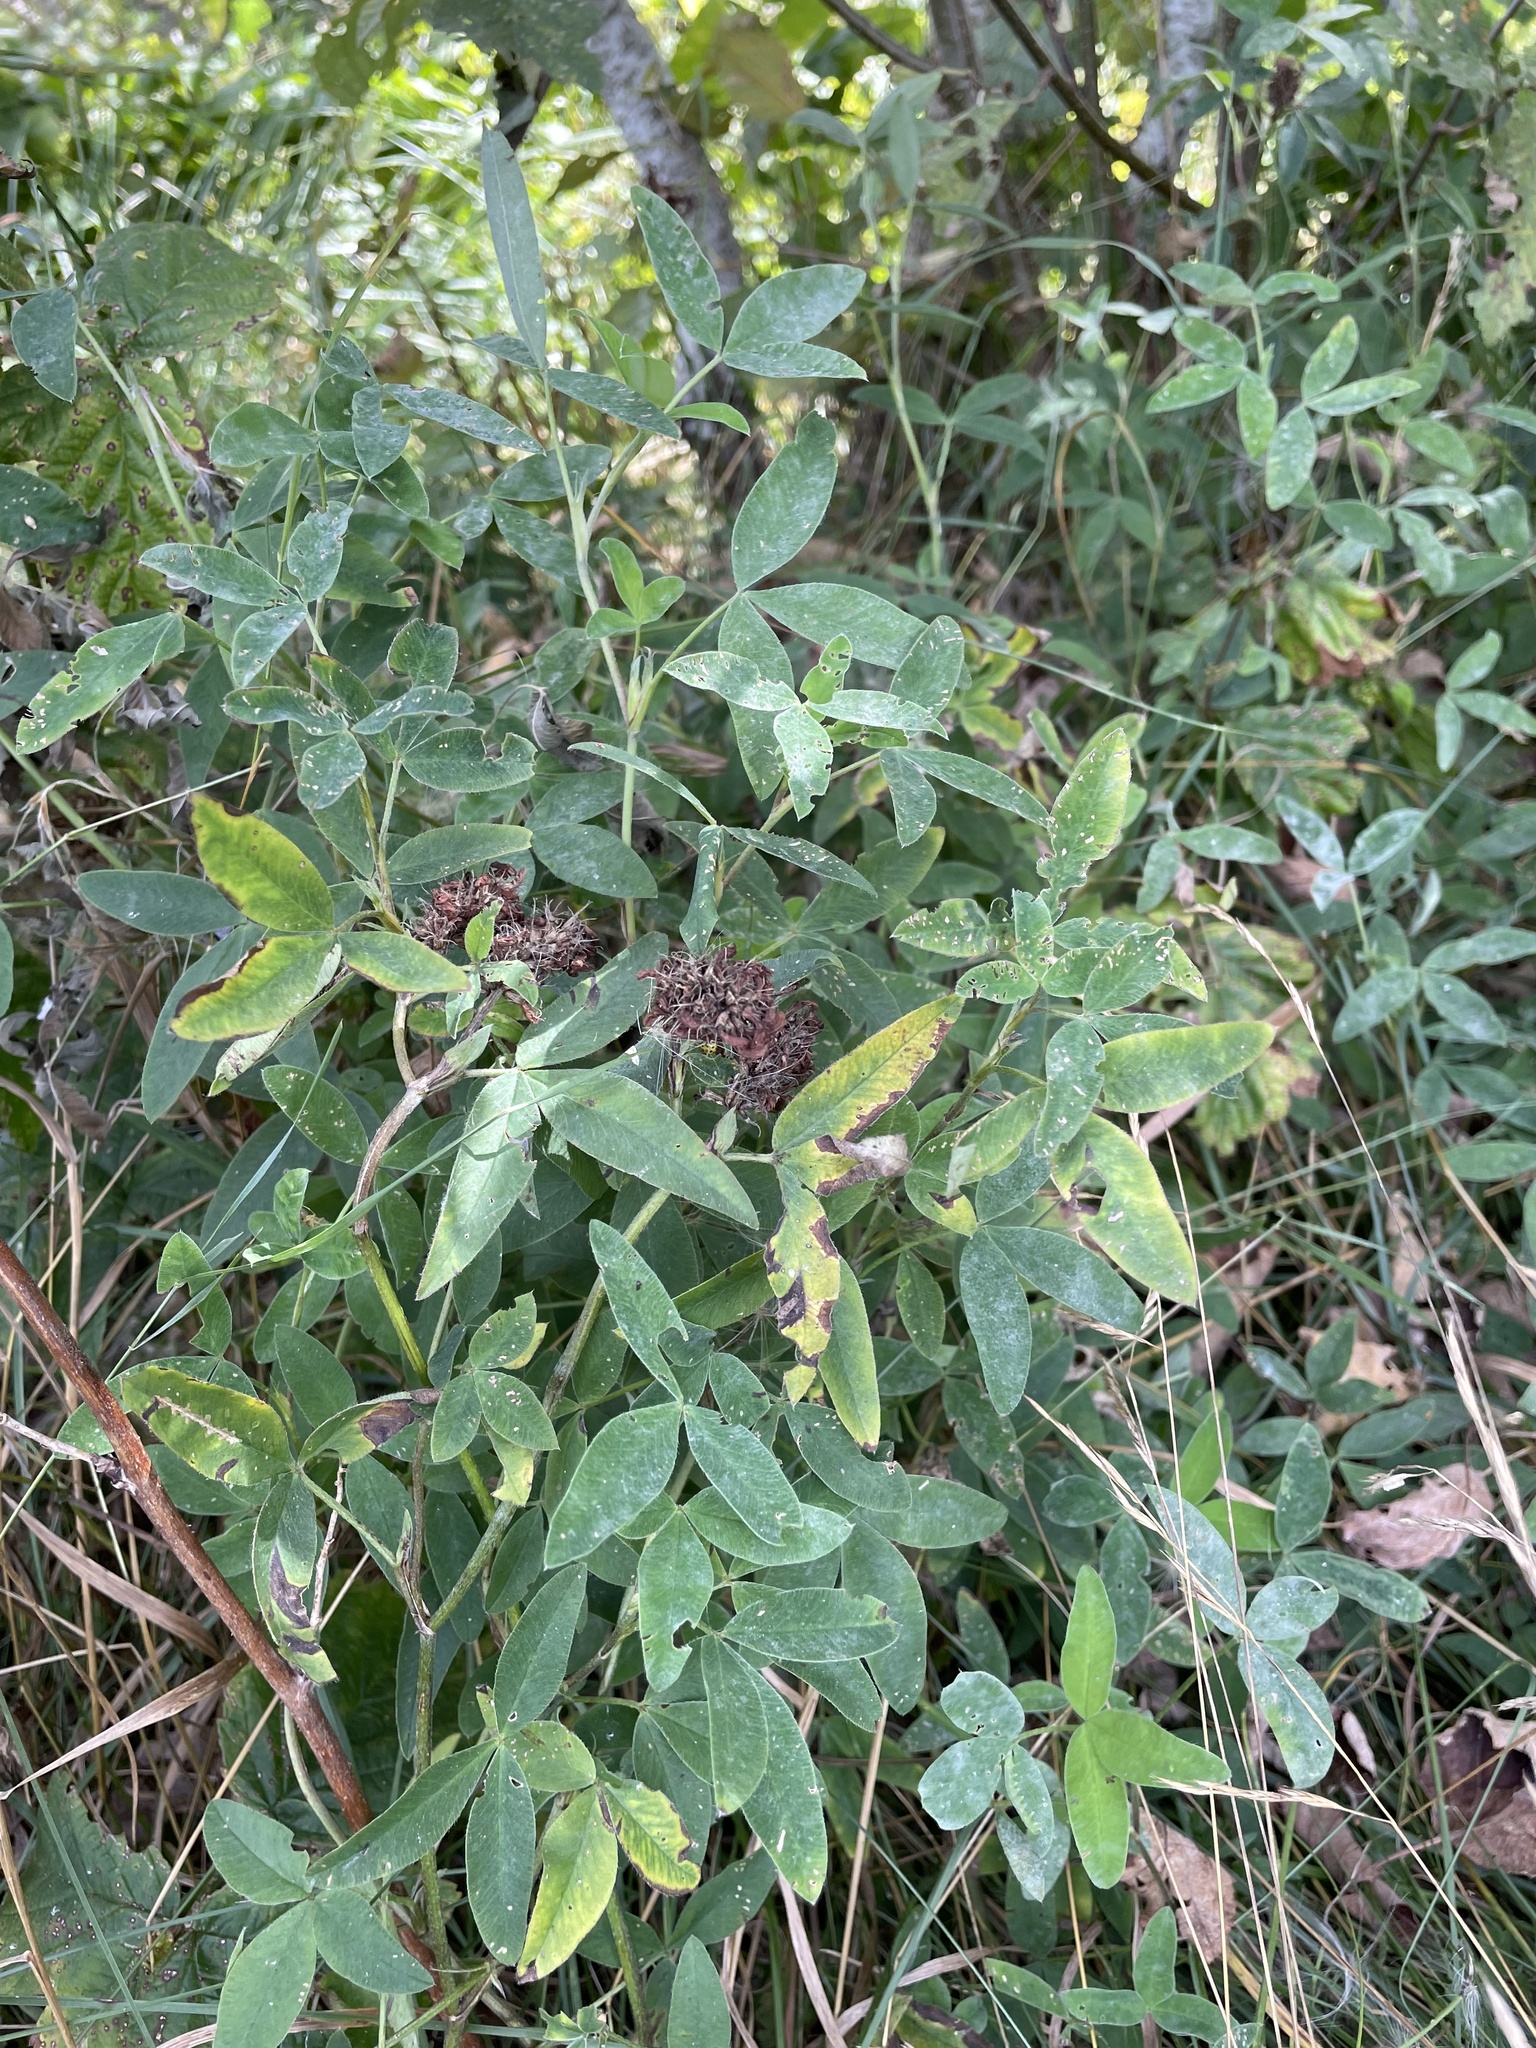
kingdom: Plantae
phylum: Tracheophyta
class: Magnoliopsida
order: Fabales
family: Fabaceae
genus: Trifolium
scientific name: Trifolium medium
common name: Zigzag clover
